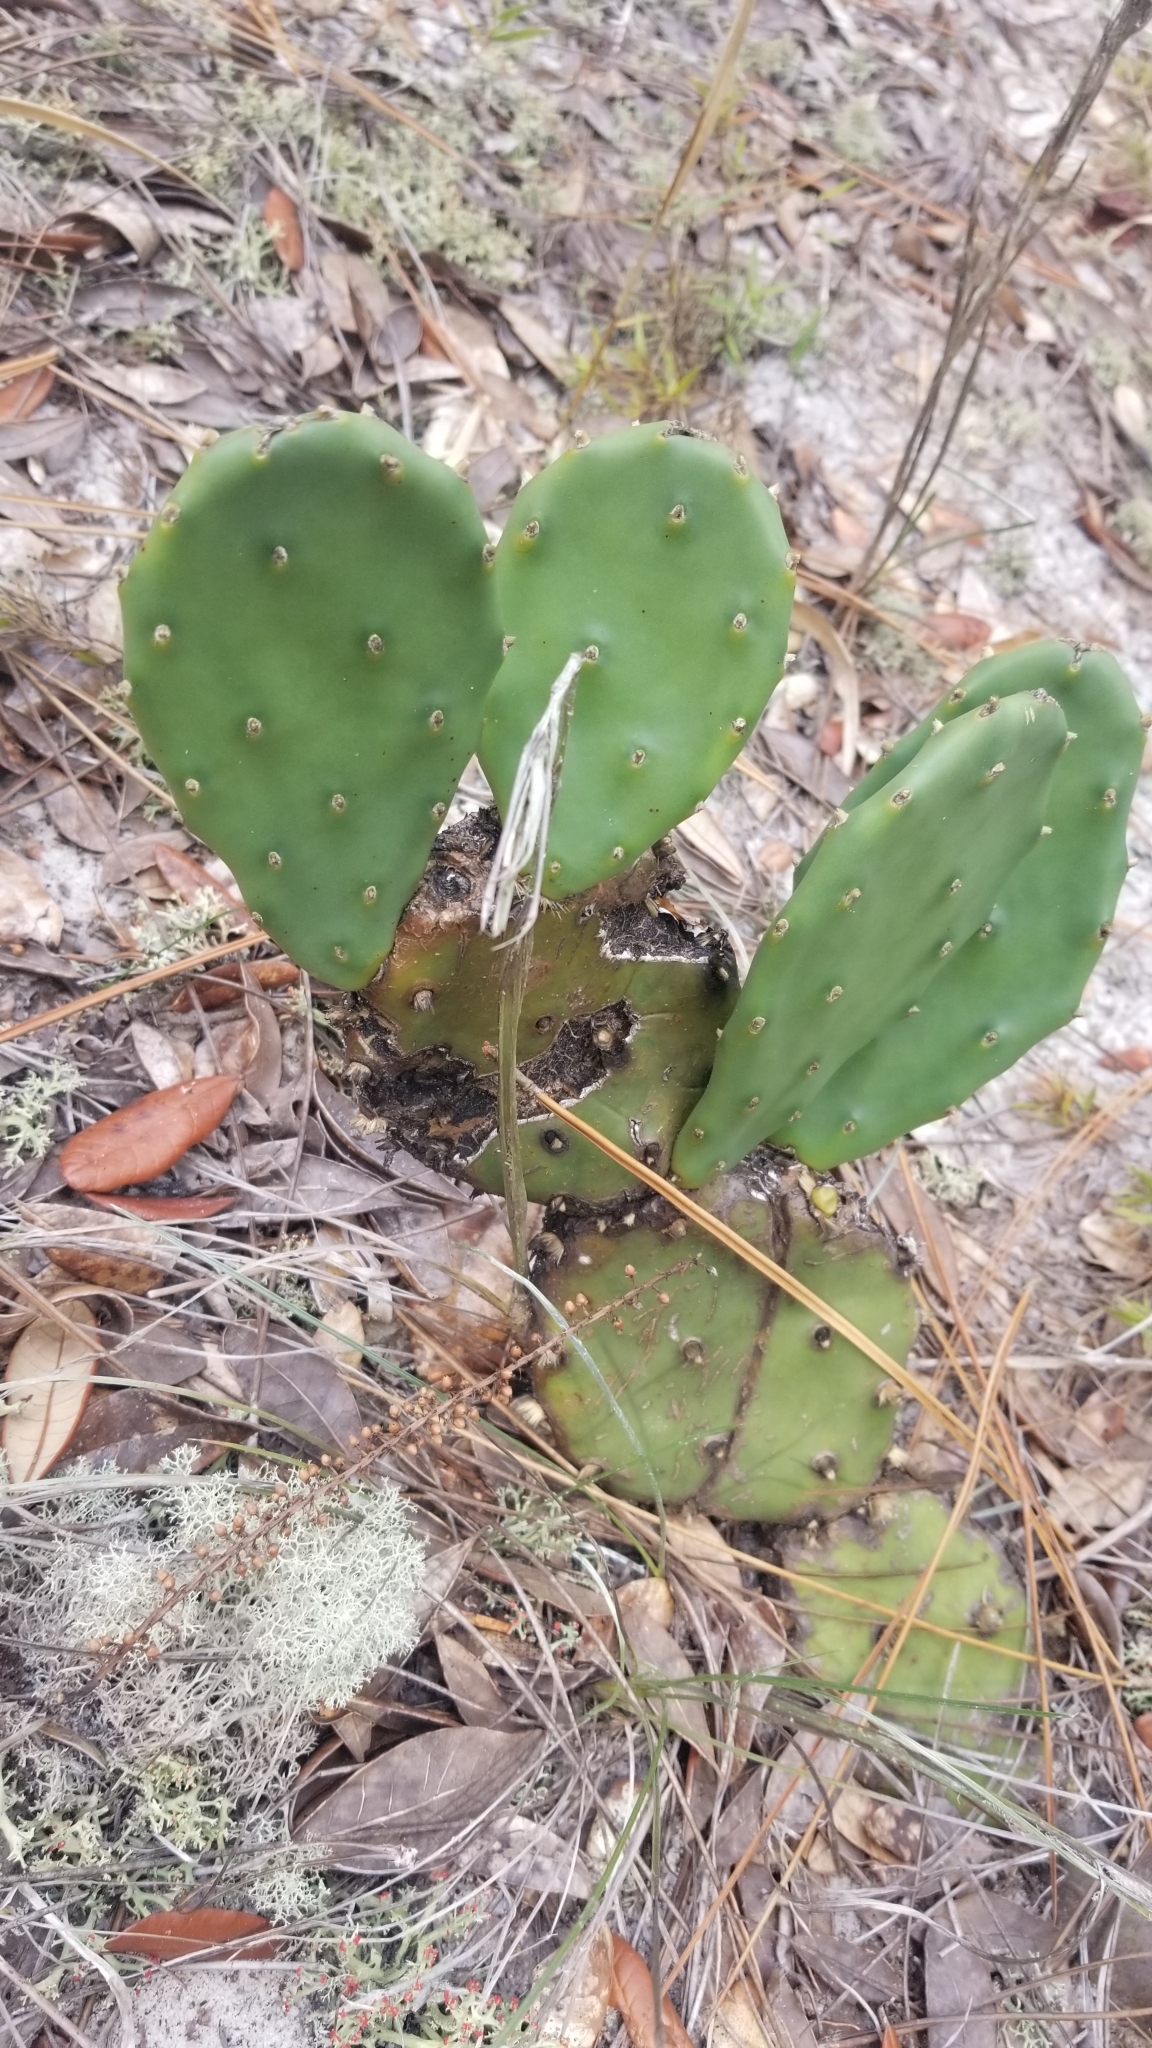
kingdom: Plantae
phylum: Tracheophyta
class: Magnoliopsida
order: Caryophyllales
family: Cactaceae
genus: Opuntia
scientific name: Opuntia mesacantha
